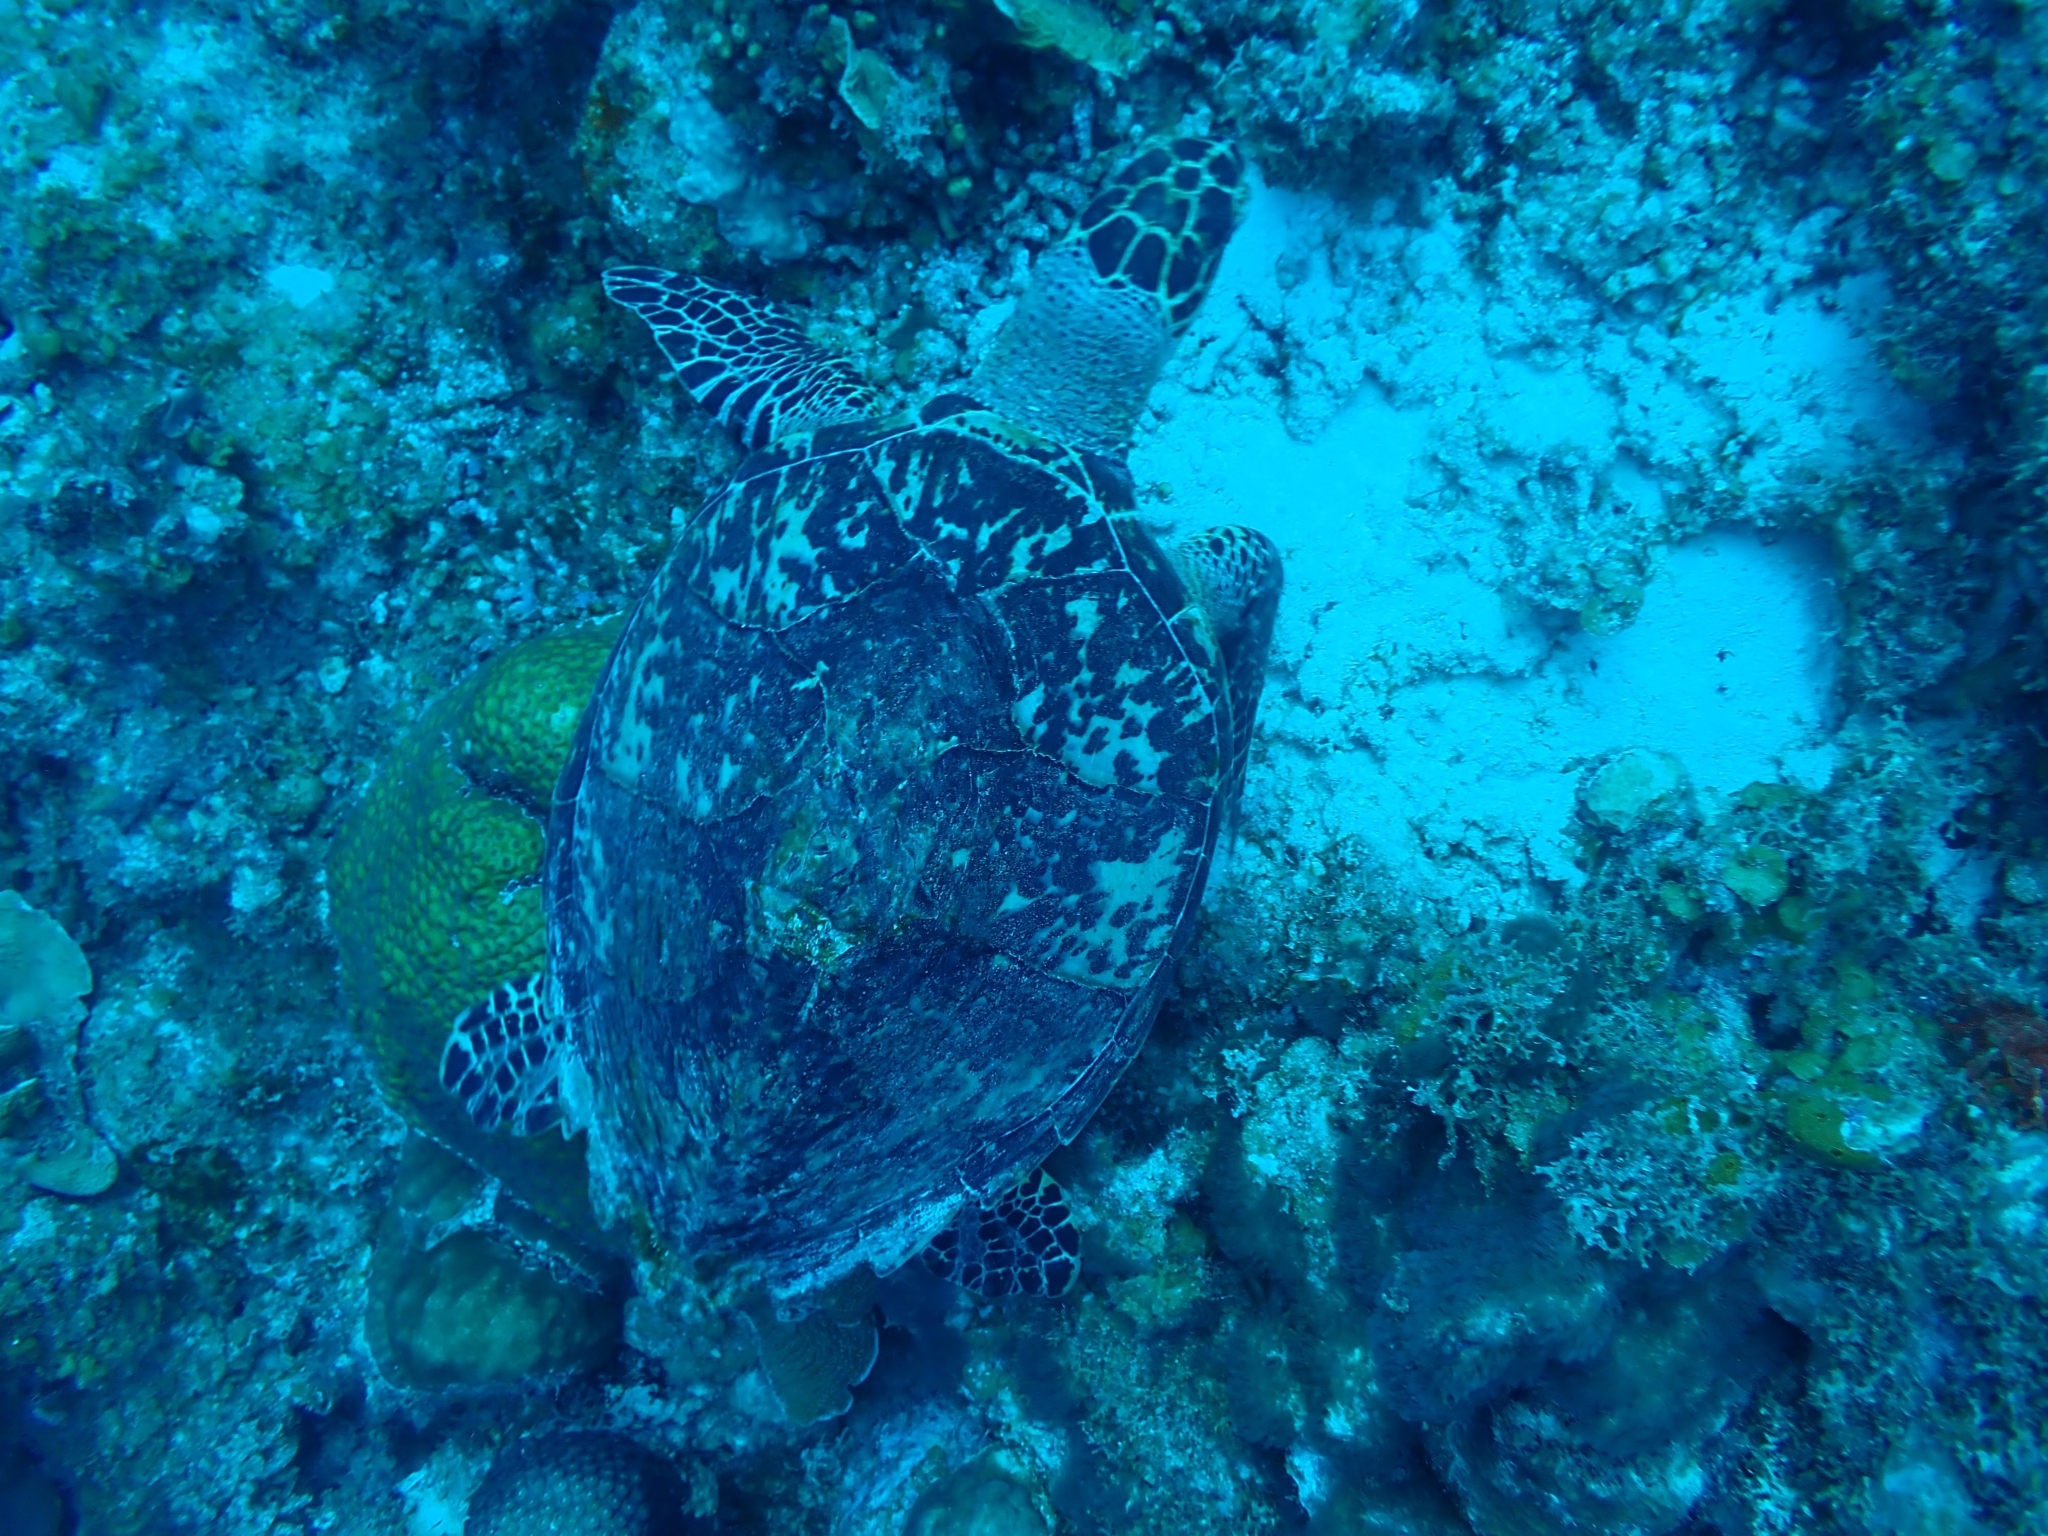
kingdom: Animalia
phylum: Chordata
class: Testudines
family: Cheloniidae
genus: Eretmochelys
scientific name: Eretmochelys imbricata
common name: Hawksbill turtle
